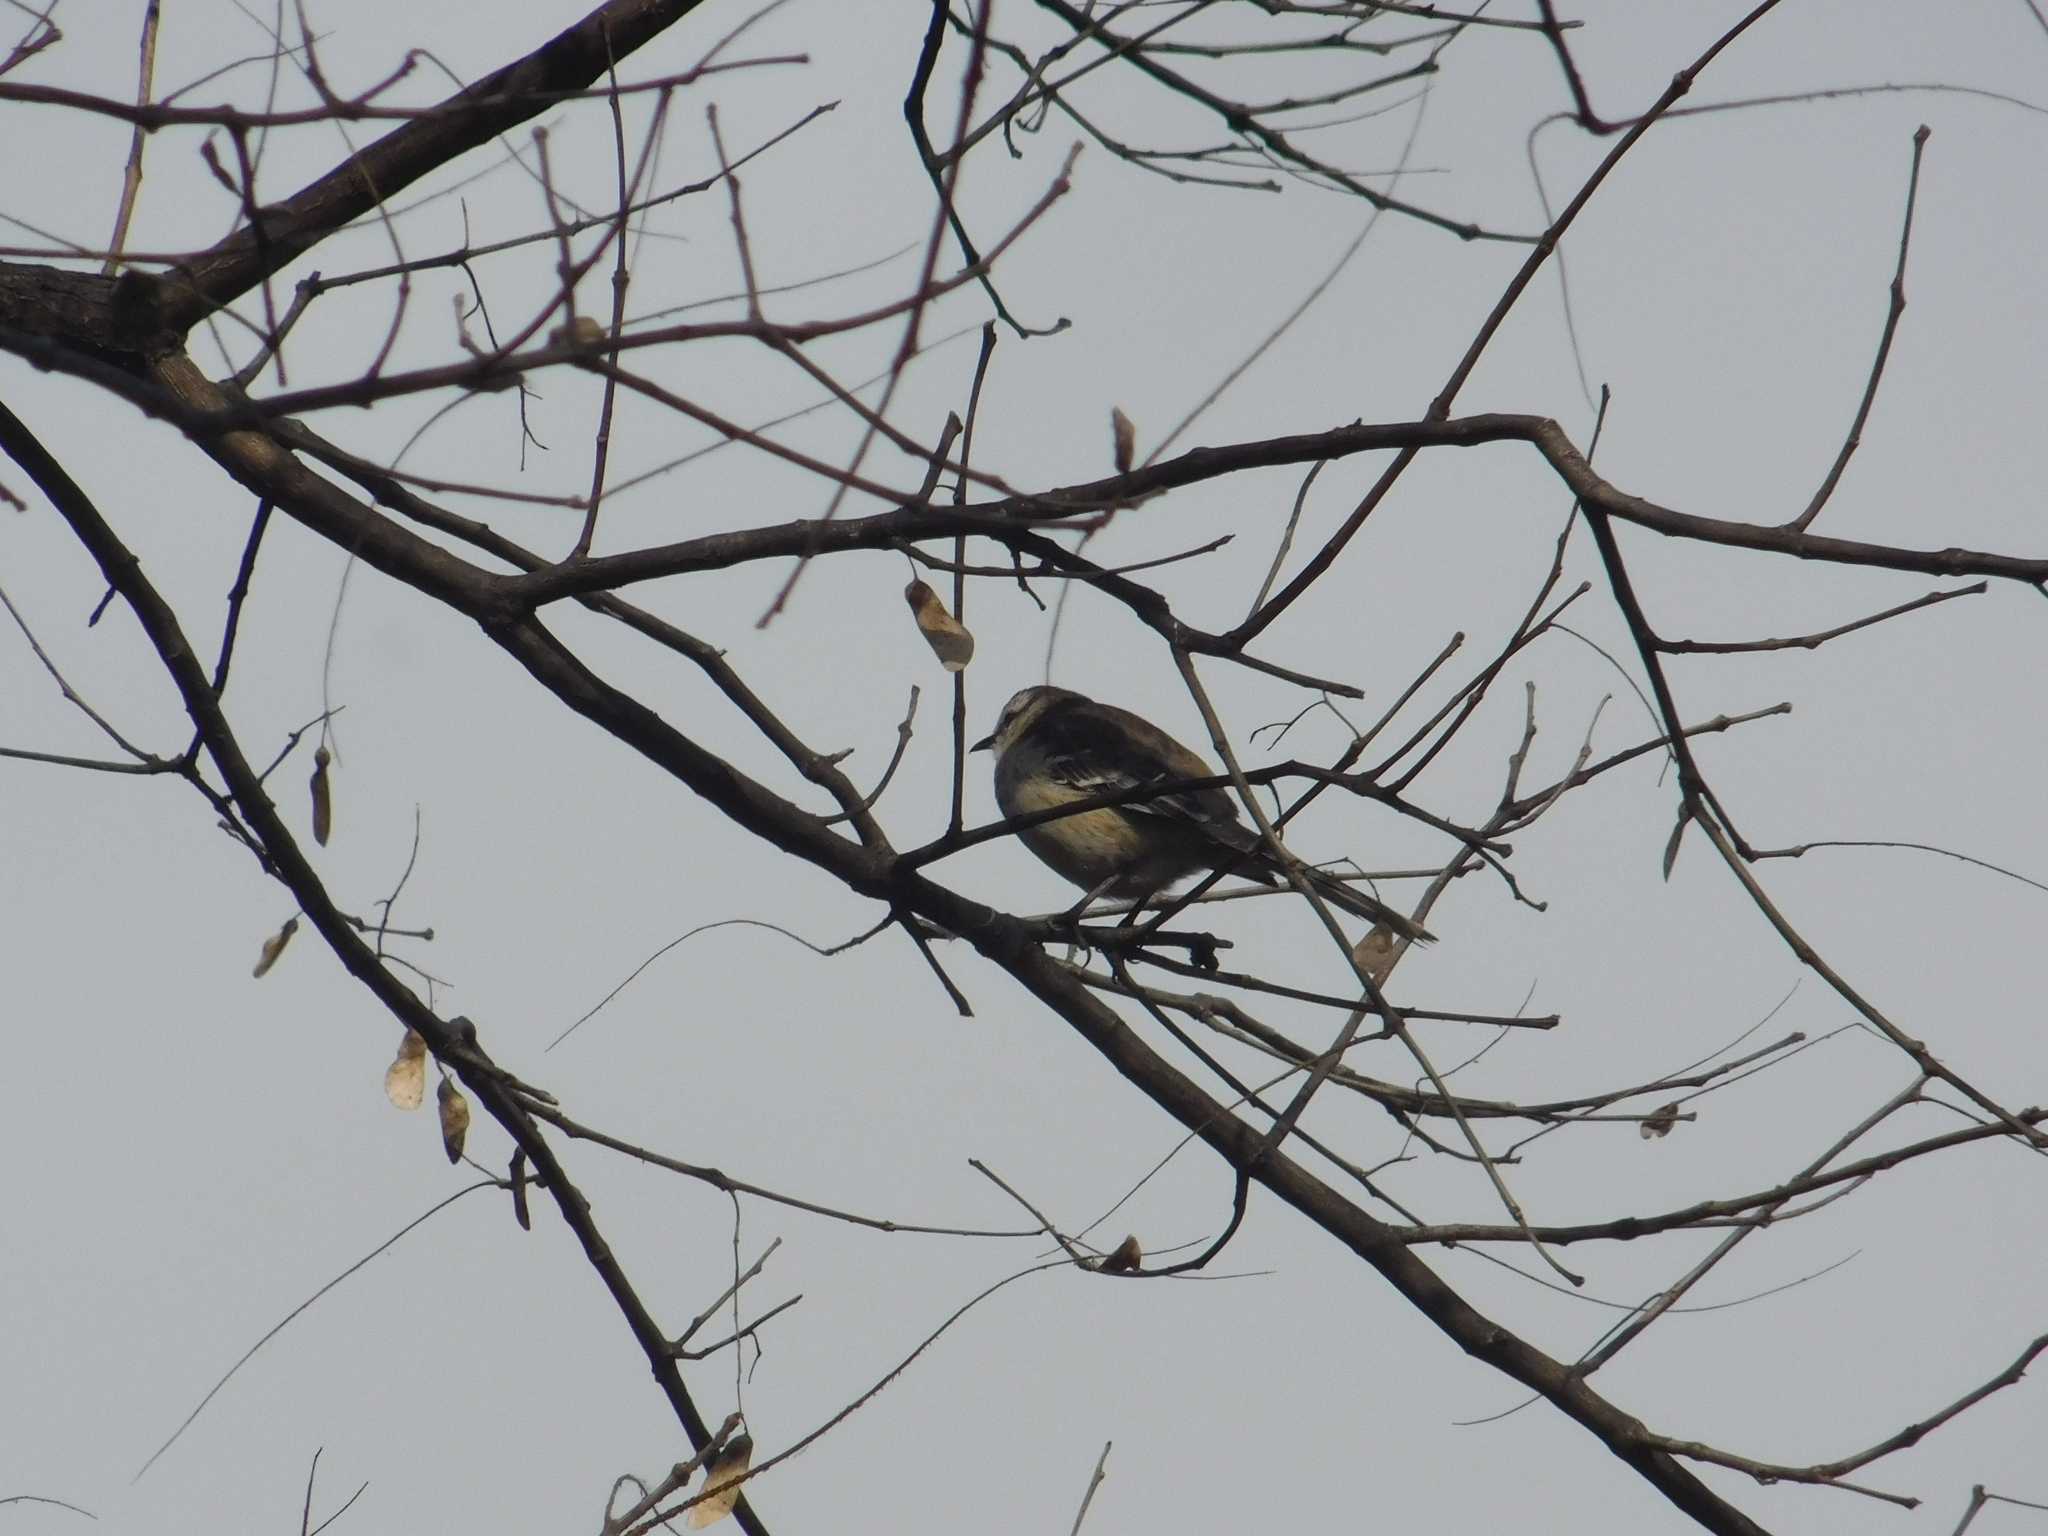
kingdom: Animalia
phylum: Chordata
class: Aves
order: Passeriformes
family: Mimidae
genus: Mimus
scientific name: Mimus saturninus
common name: Chalk-browed mockingbird
